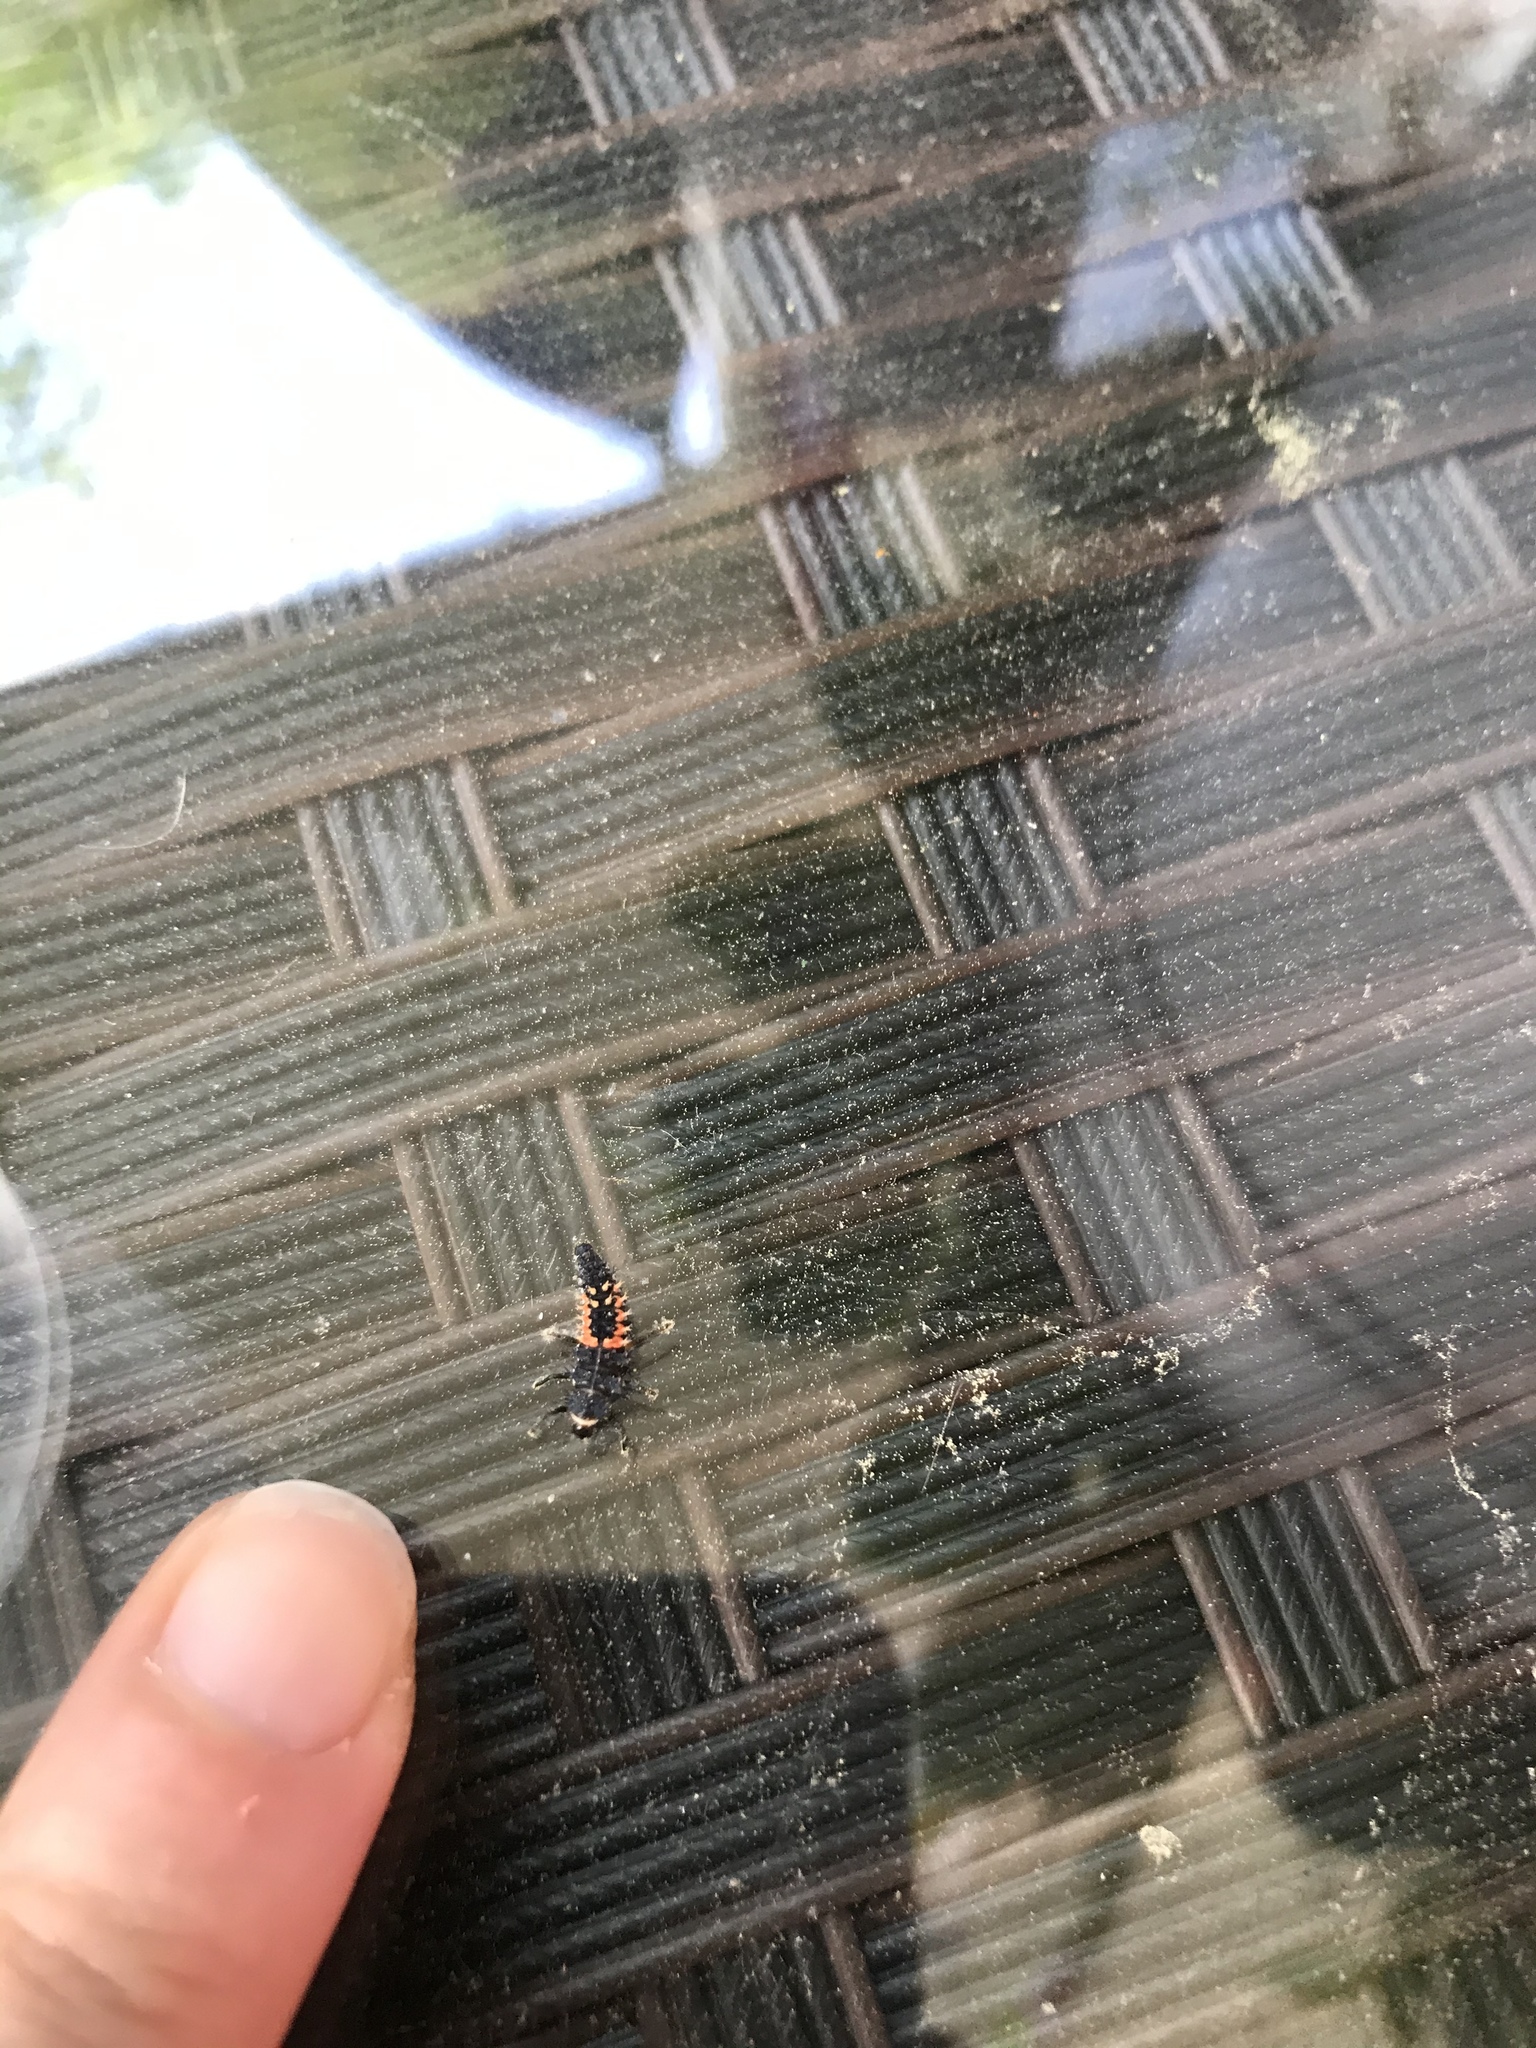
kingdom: Animalia
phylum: Arthropoda
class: Insecta
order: Coleoptera
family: Coccinellidae
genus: Harmonia
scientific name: Harmonia axyridis
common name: Harlequin ladybird
